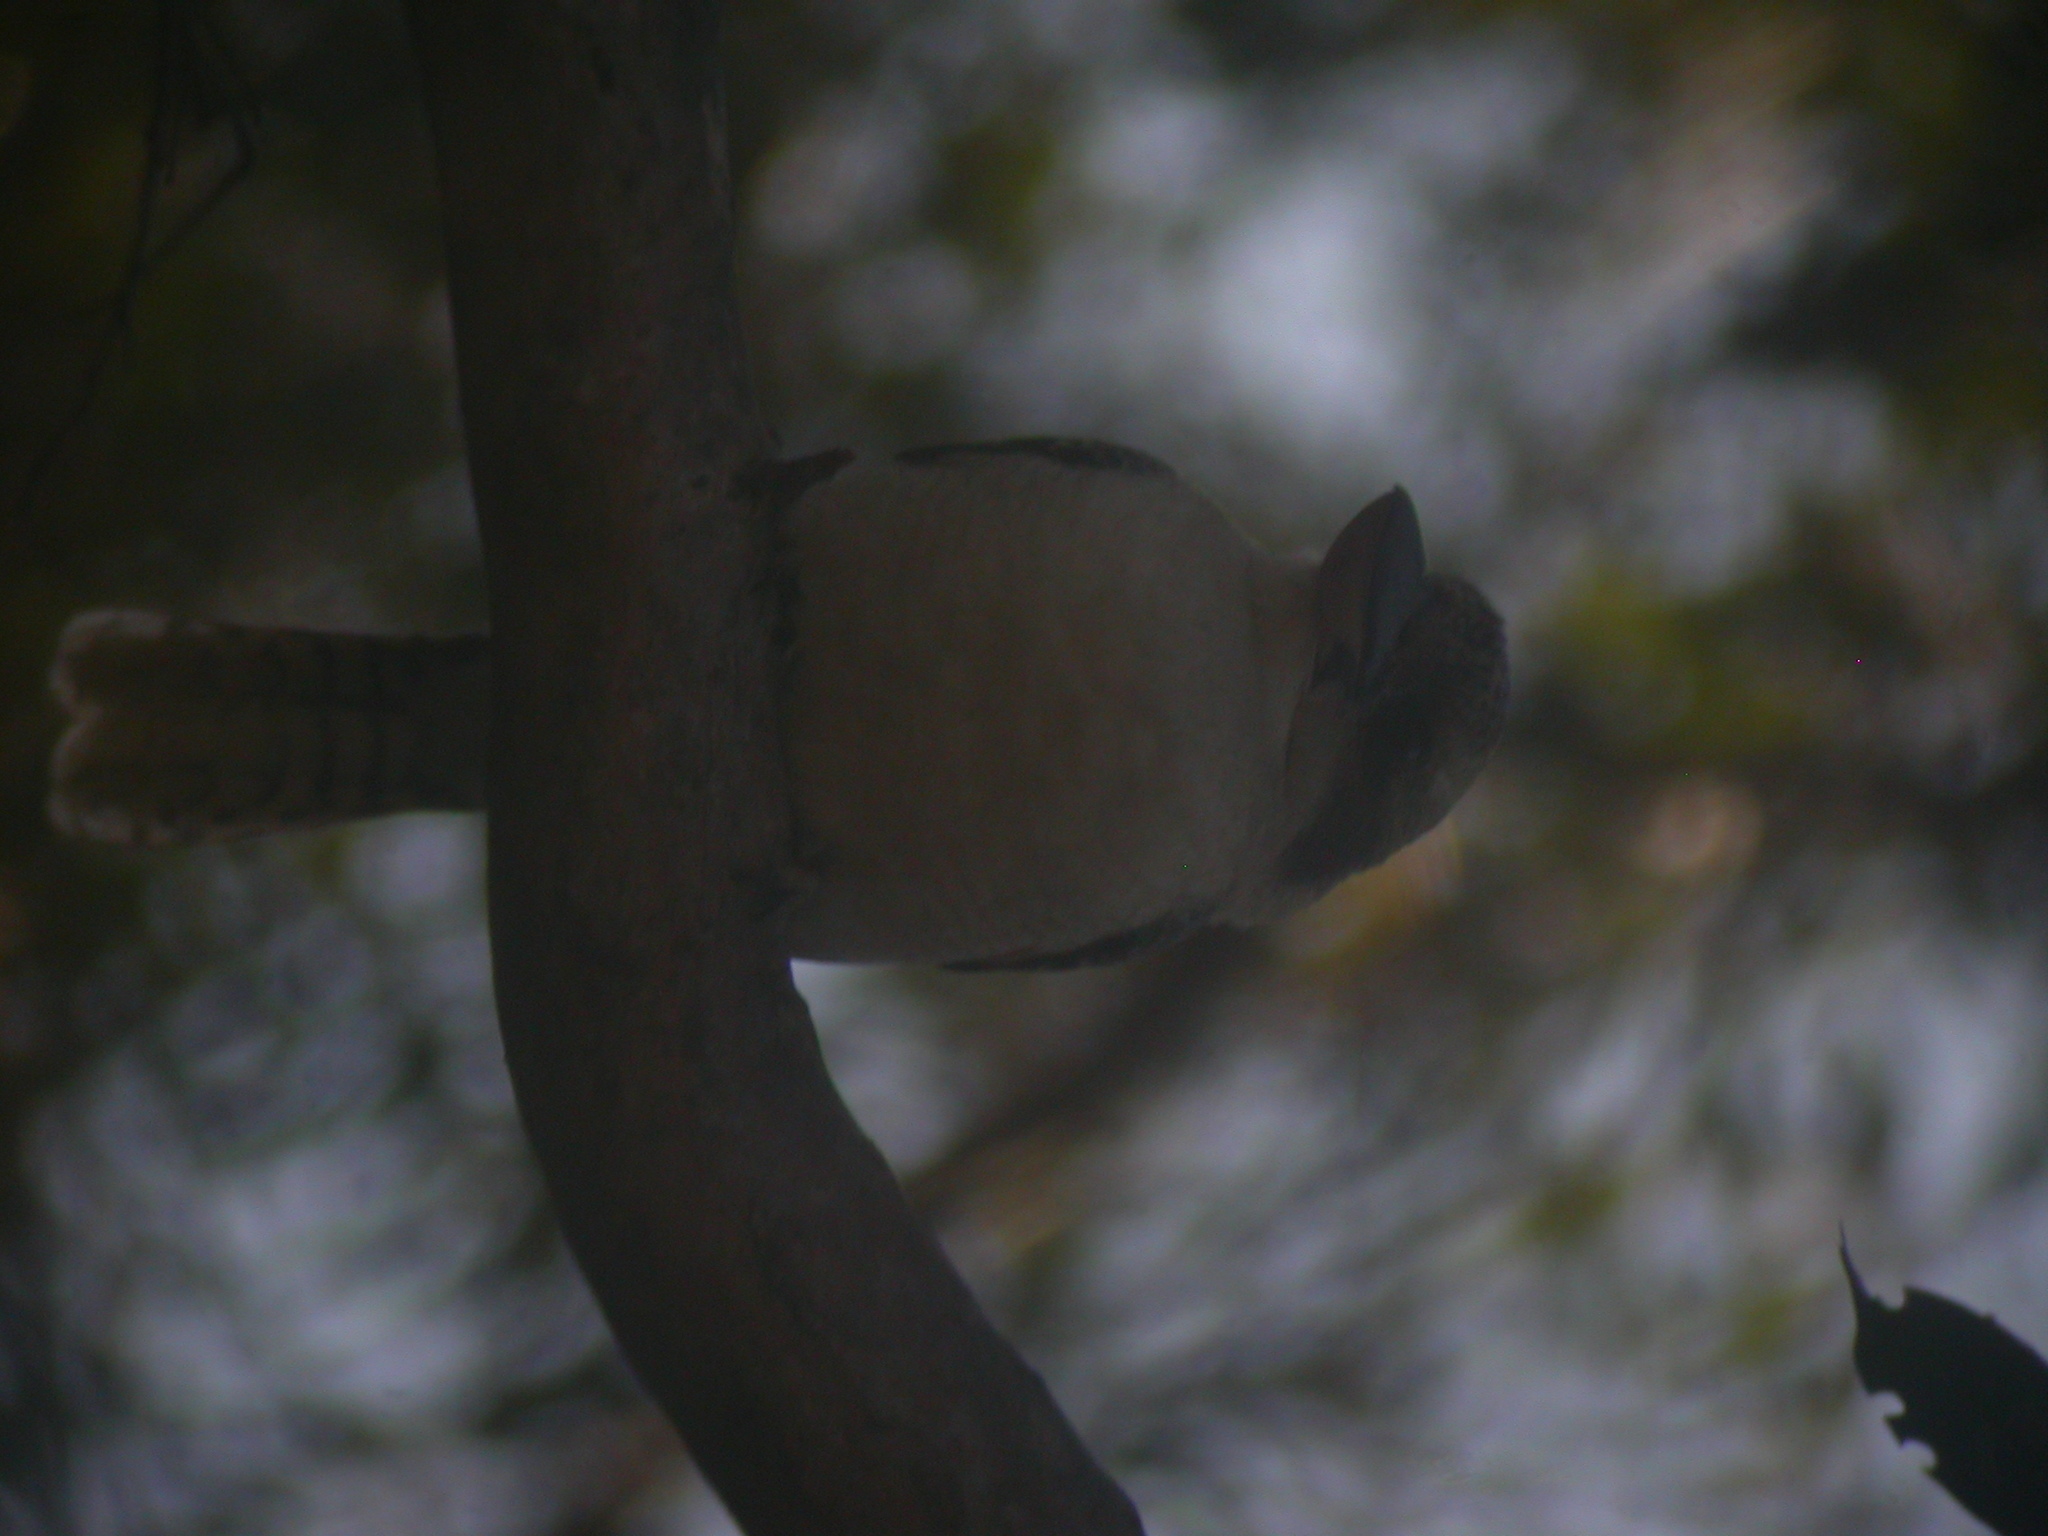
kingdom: Animalia
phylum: Chordata
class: Aves
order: Coraciiformes
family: Alcedinidae
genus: Dacelo
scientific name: Dacelo novaeguineae
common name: Laughing kookaburra
